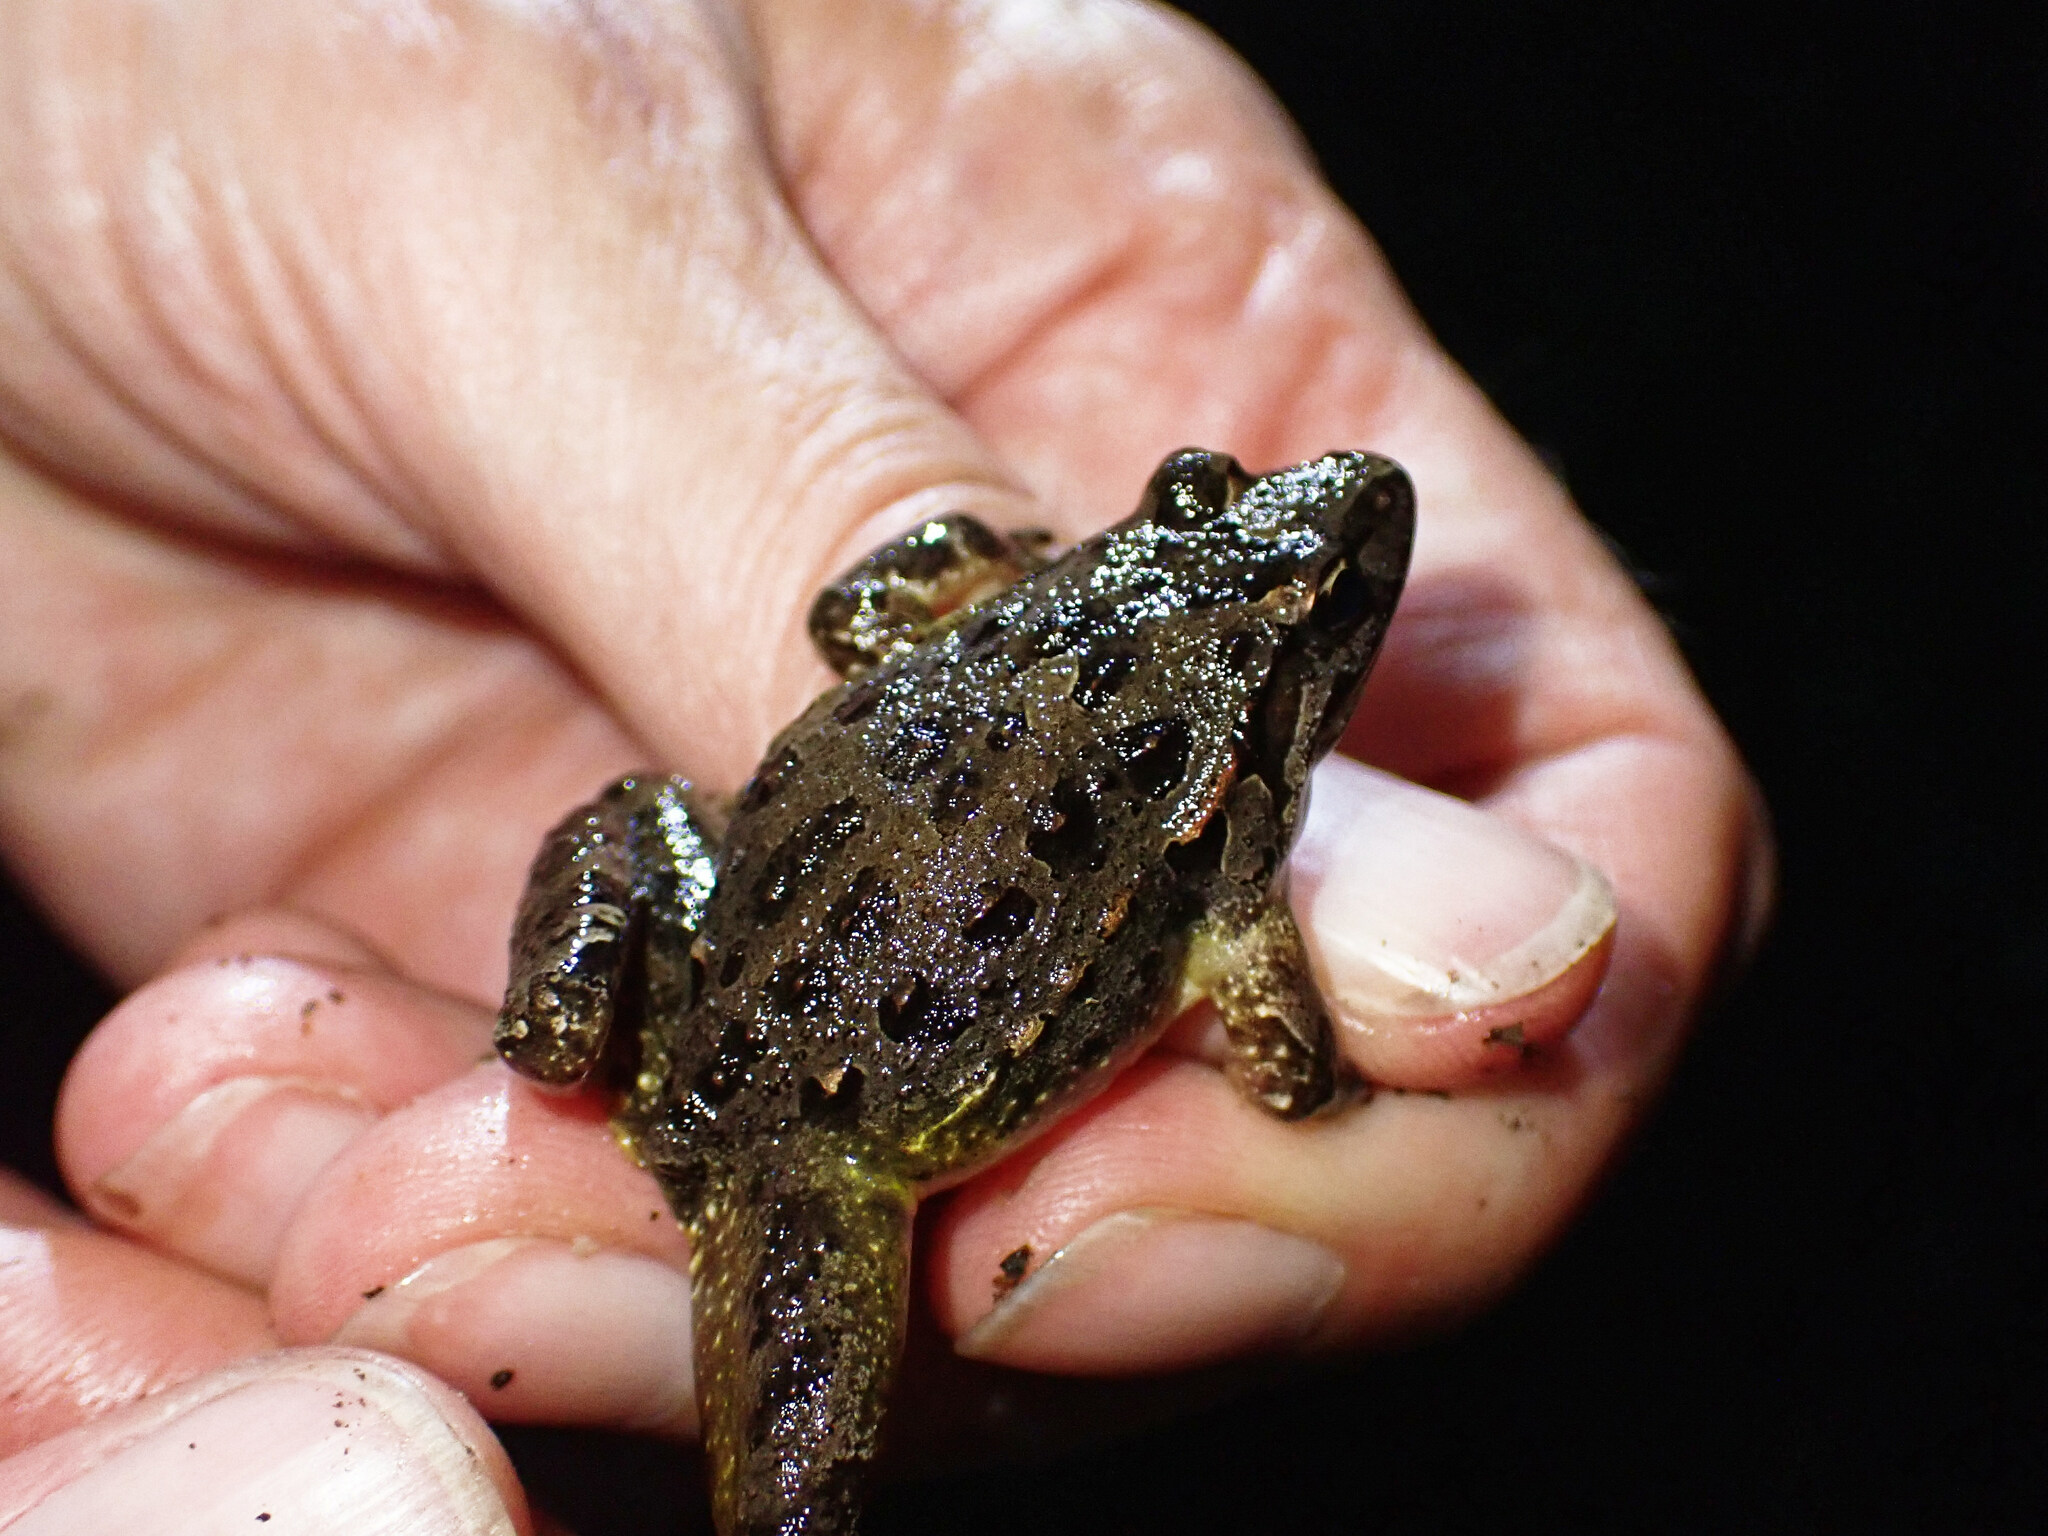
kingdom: Animalia
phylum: Chordata
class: Amphibia
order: Anura
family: Alytidae
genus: Discoglossus
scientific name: Discoglossus pictus
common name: Painted frog
